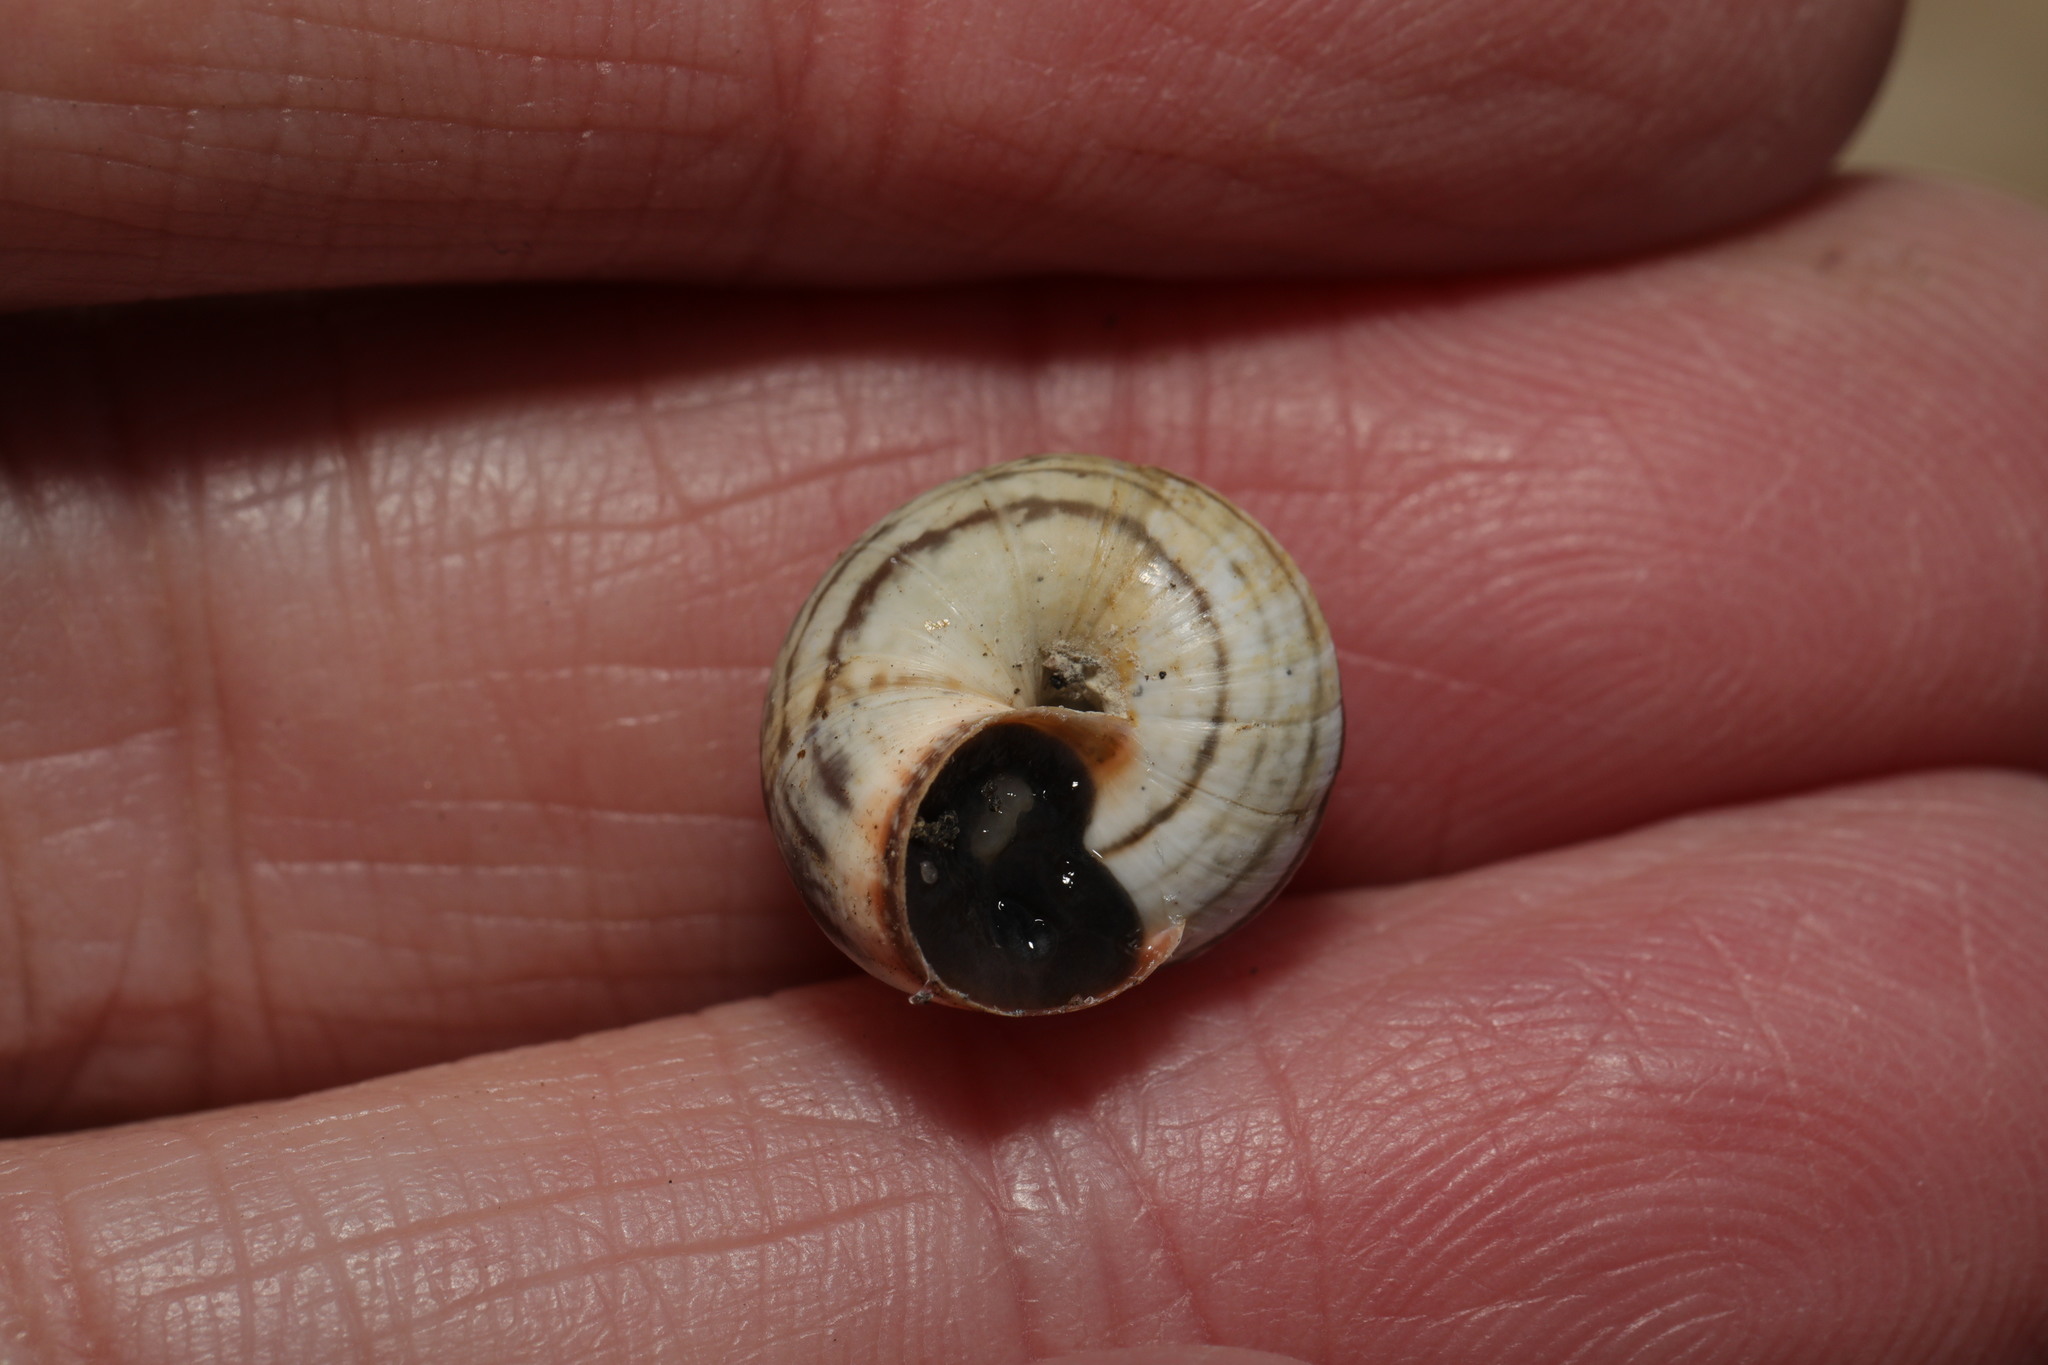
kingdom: Animalia
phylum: Mollusca
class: Gastropoda
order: Stylommatophora
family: Geomitridae
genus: Cernuella
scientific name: Cernuella virgata
